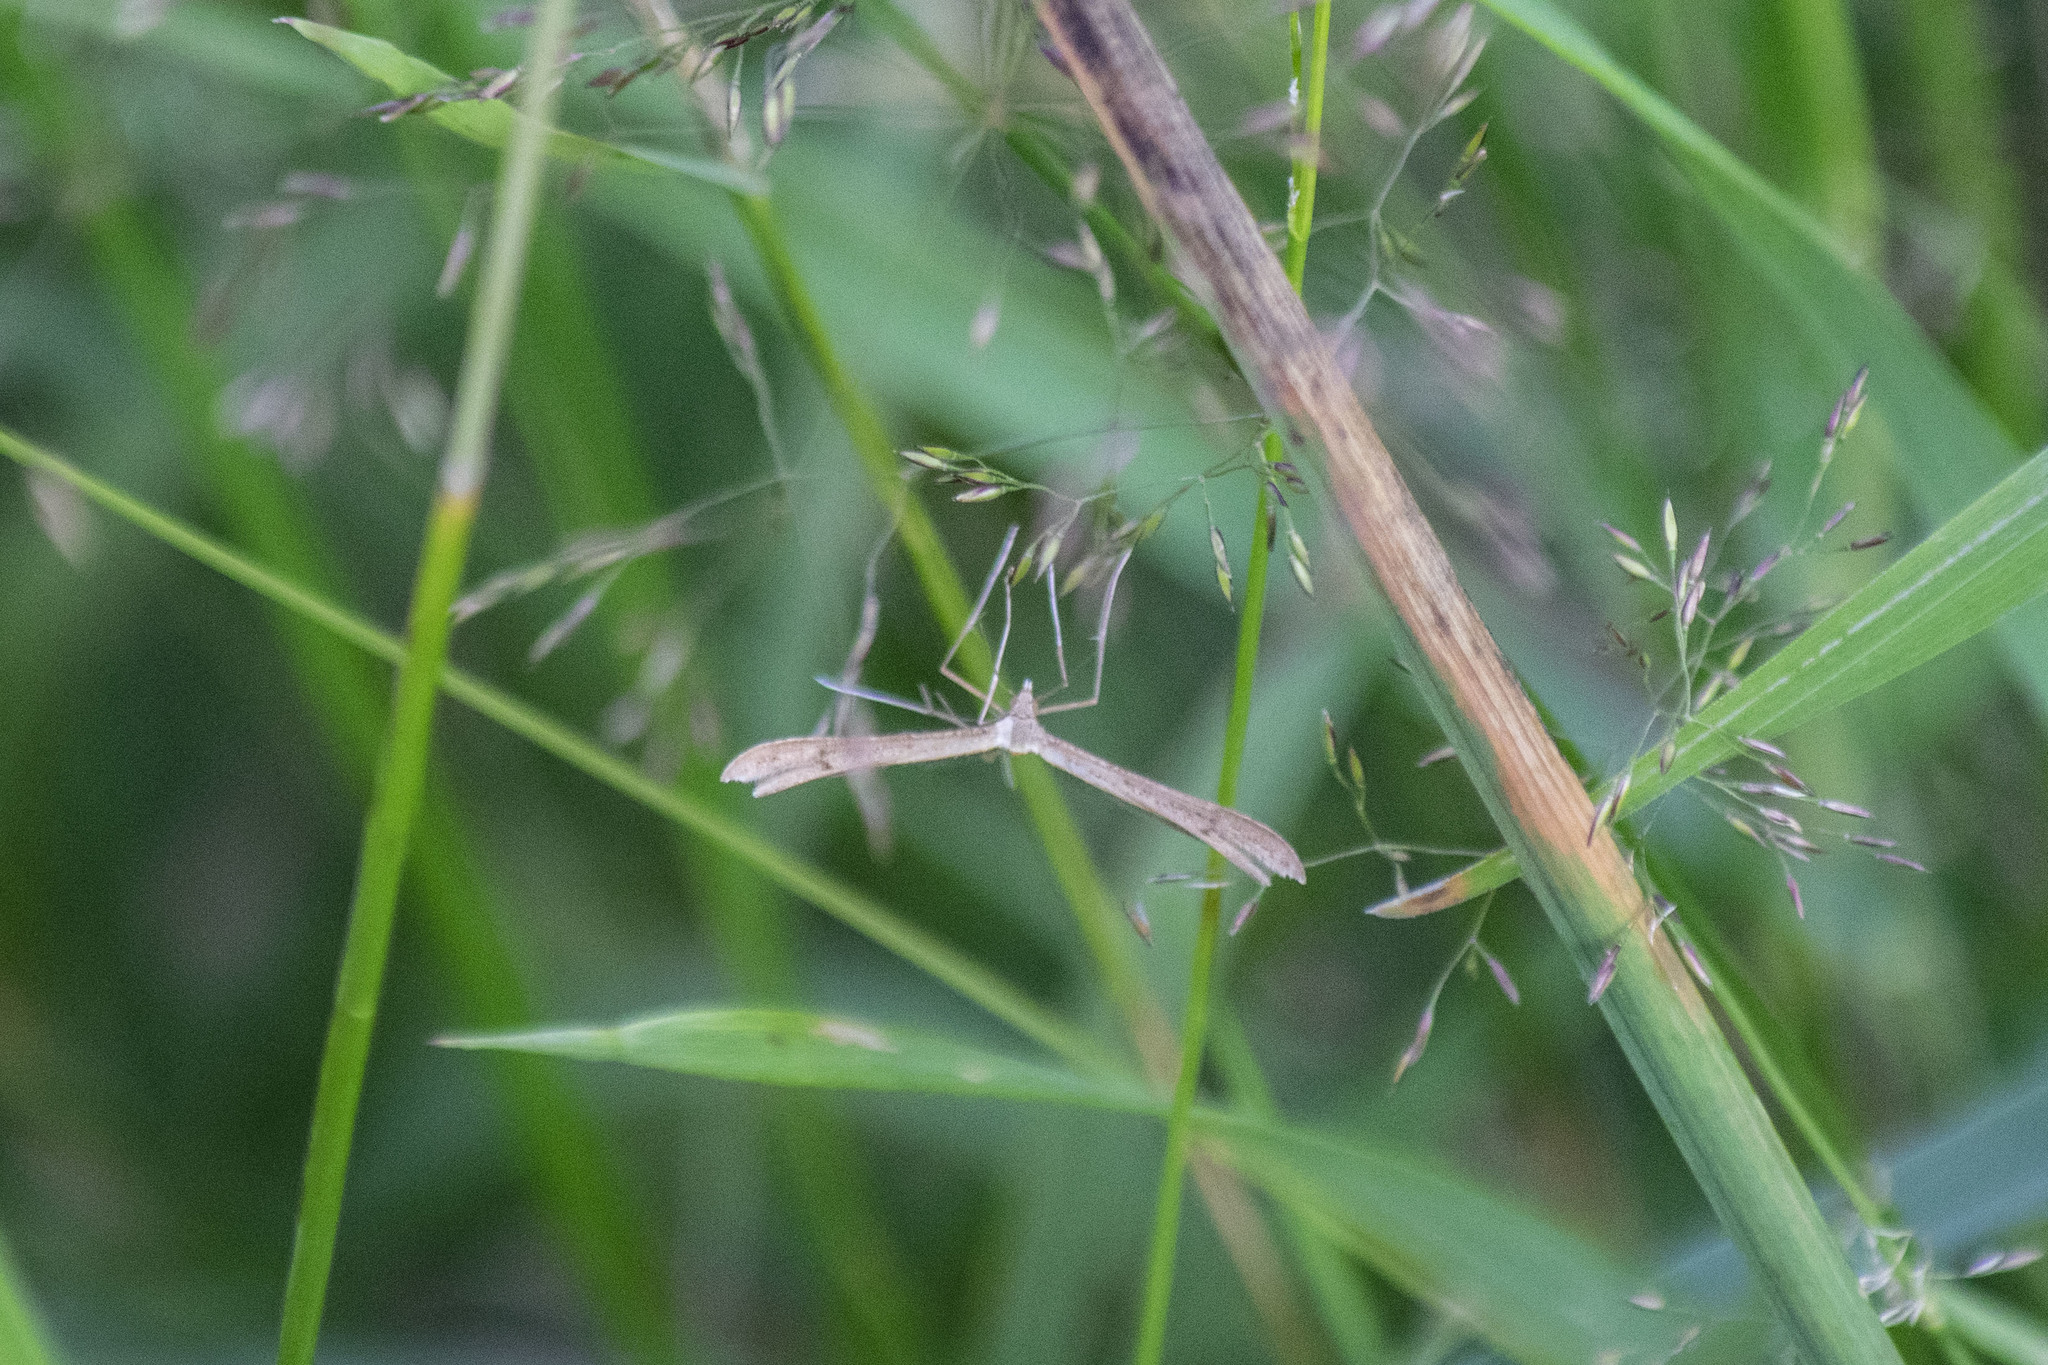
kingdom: Animalia
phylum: Arthropoda
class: Insecta
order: Lepidoptera
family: Pterophoridae
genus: Stenoptilia
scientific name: Stenoptilia pterodactyla
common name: Brown plume
